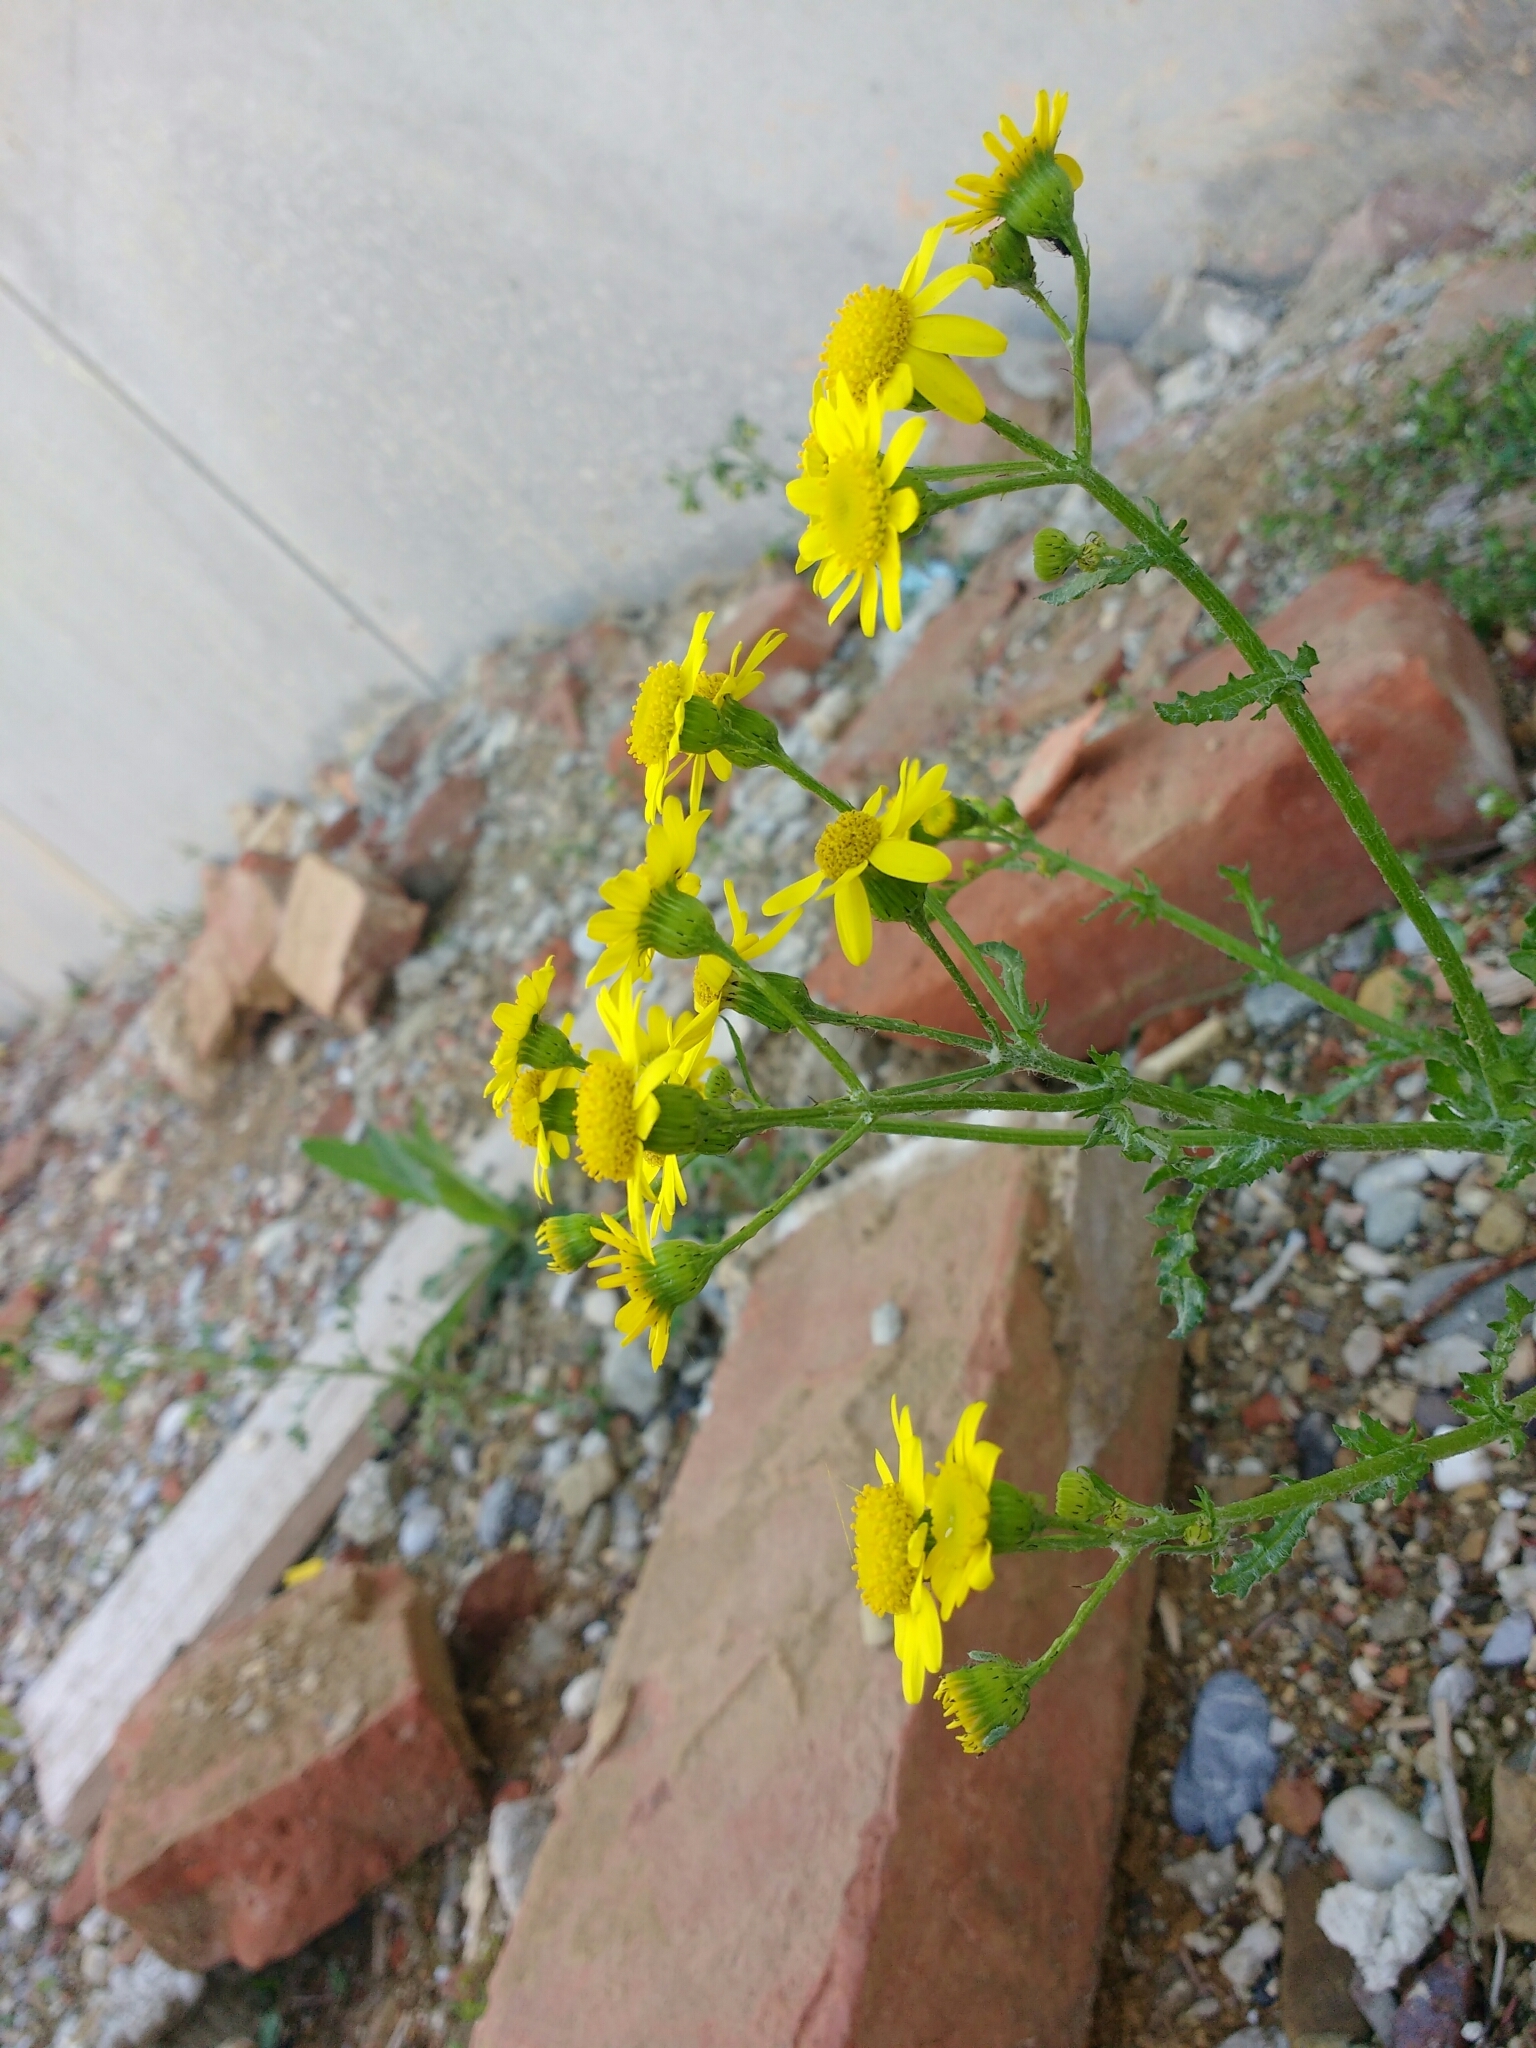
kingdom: Plantae
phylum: Tracheophyta
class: Magnoliopsida
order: Asterales
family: Asteraceae
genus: Senecio
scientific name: Senecio vernalis
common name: Eastern groundsel
